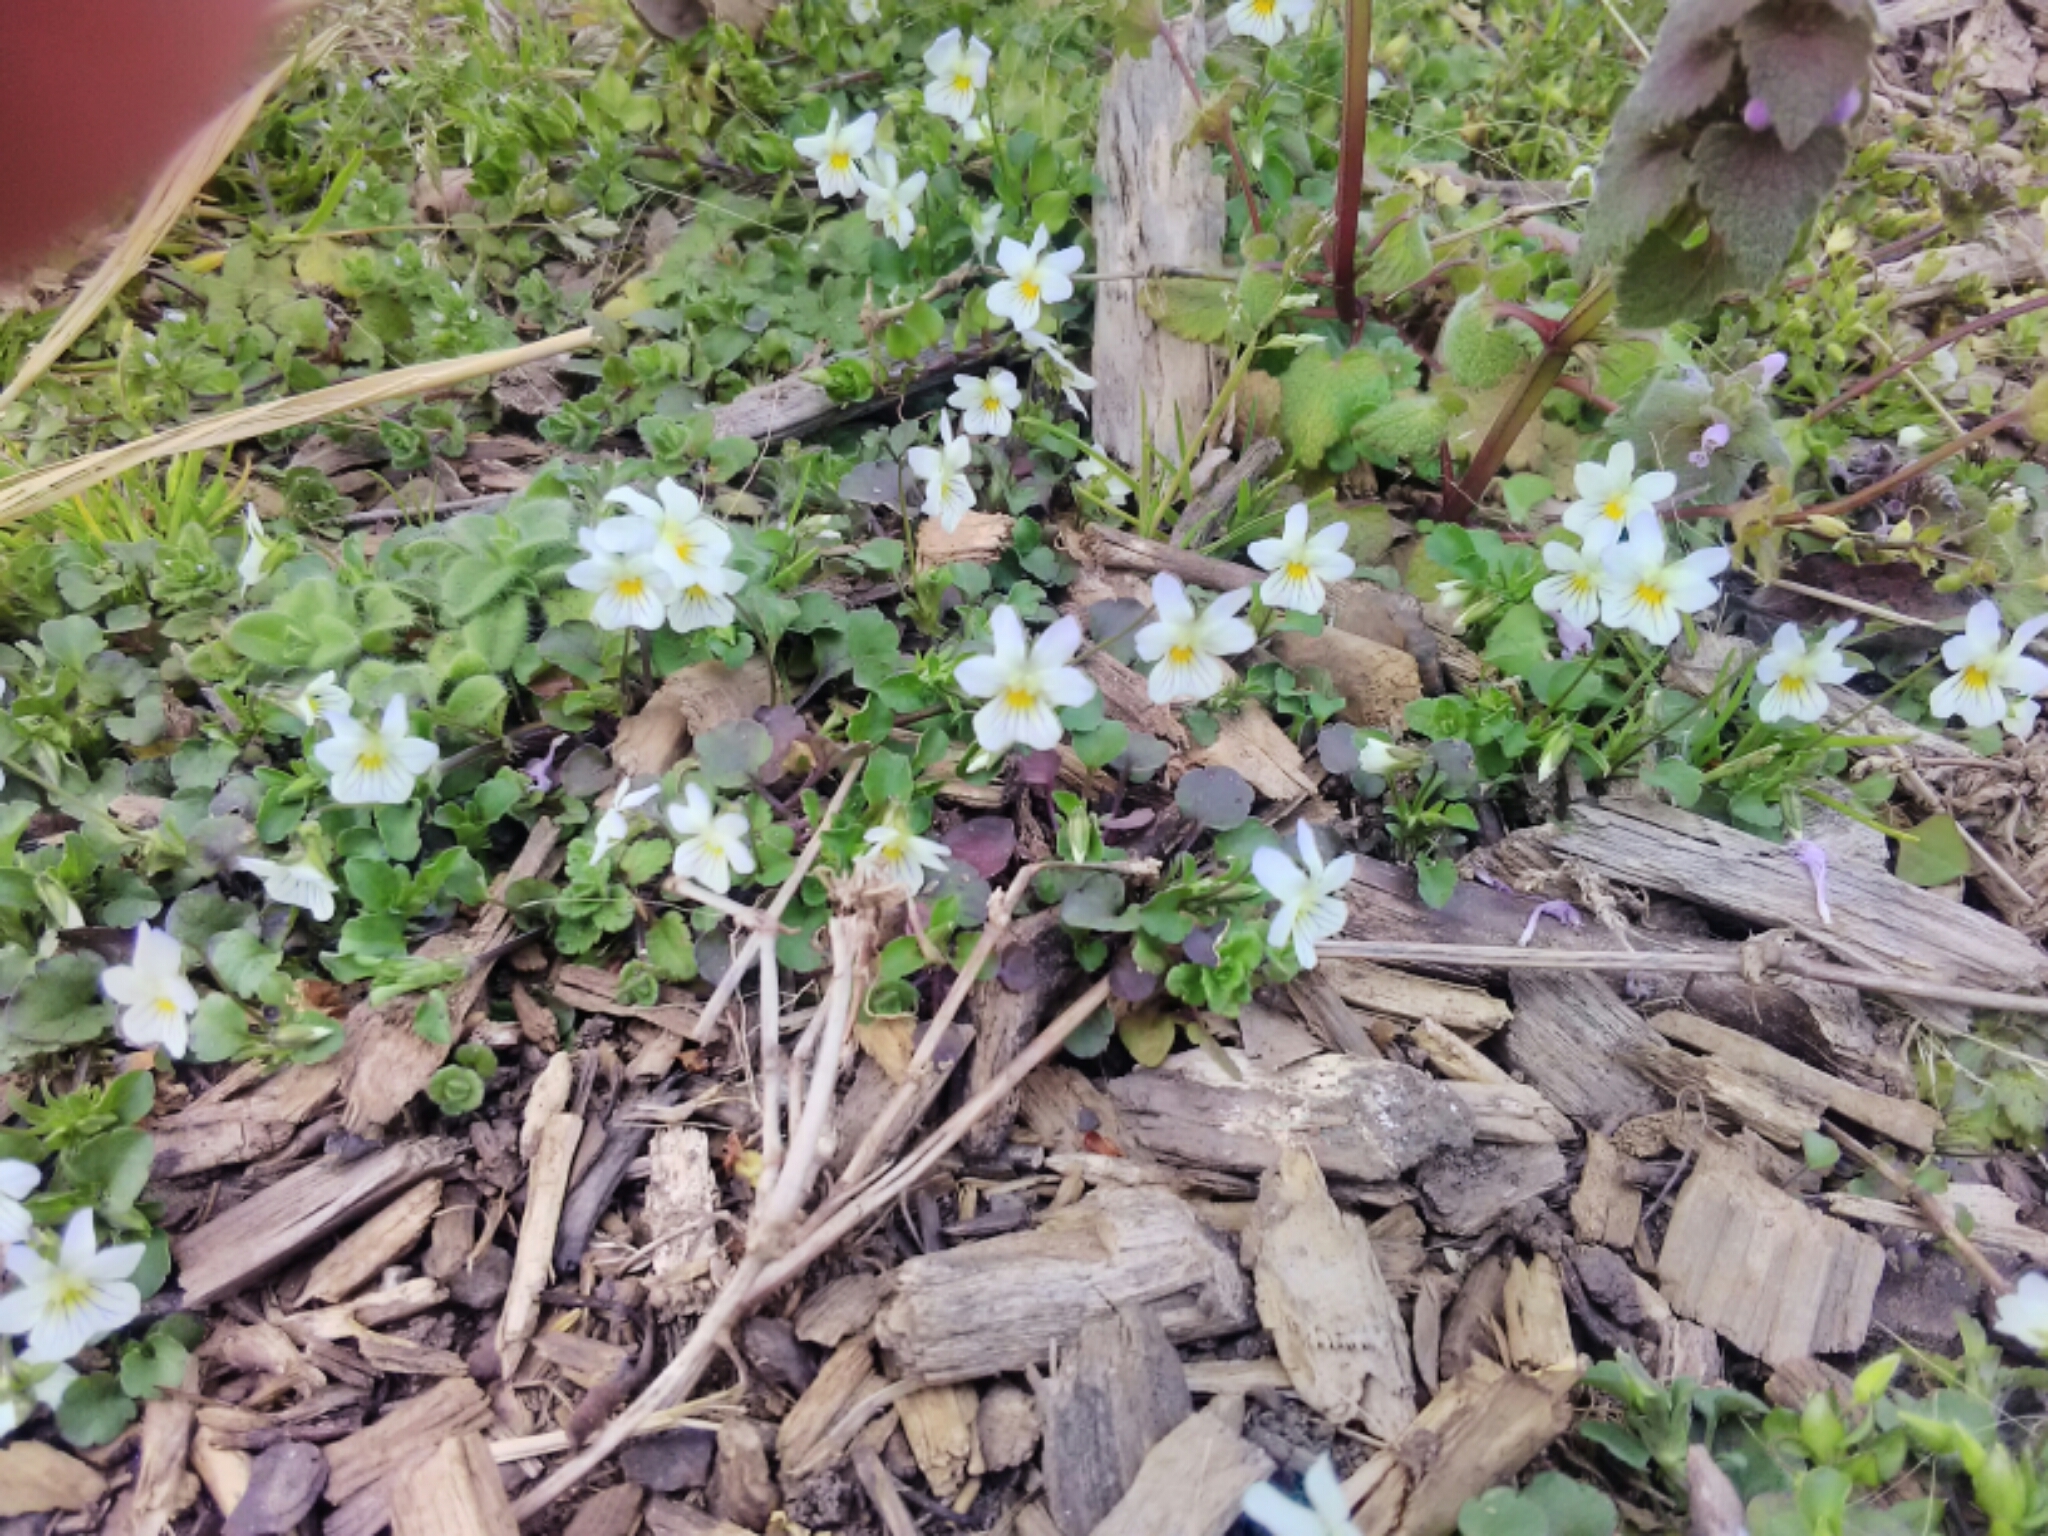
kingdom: Plantae
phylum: Tracheophyta
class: Magnoliopsida
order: Malpighiales
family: Violaceae
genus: Viola
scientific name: Viola rafinesquei
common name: American field pansy
